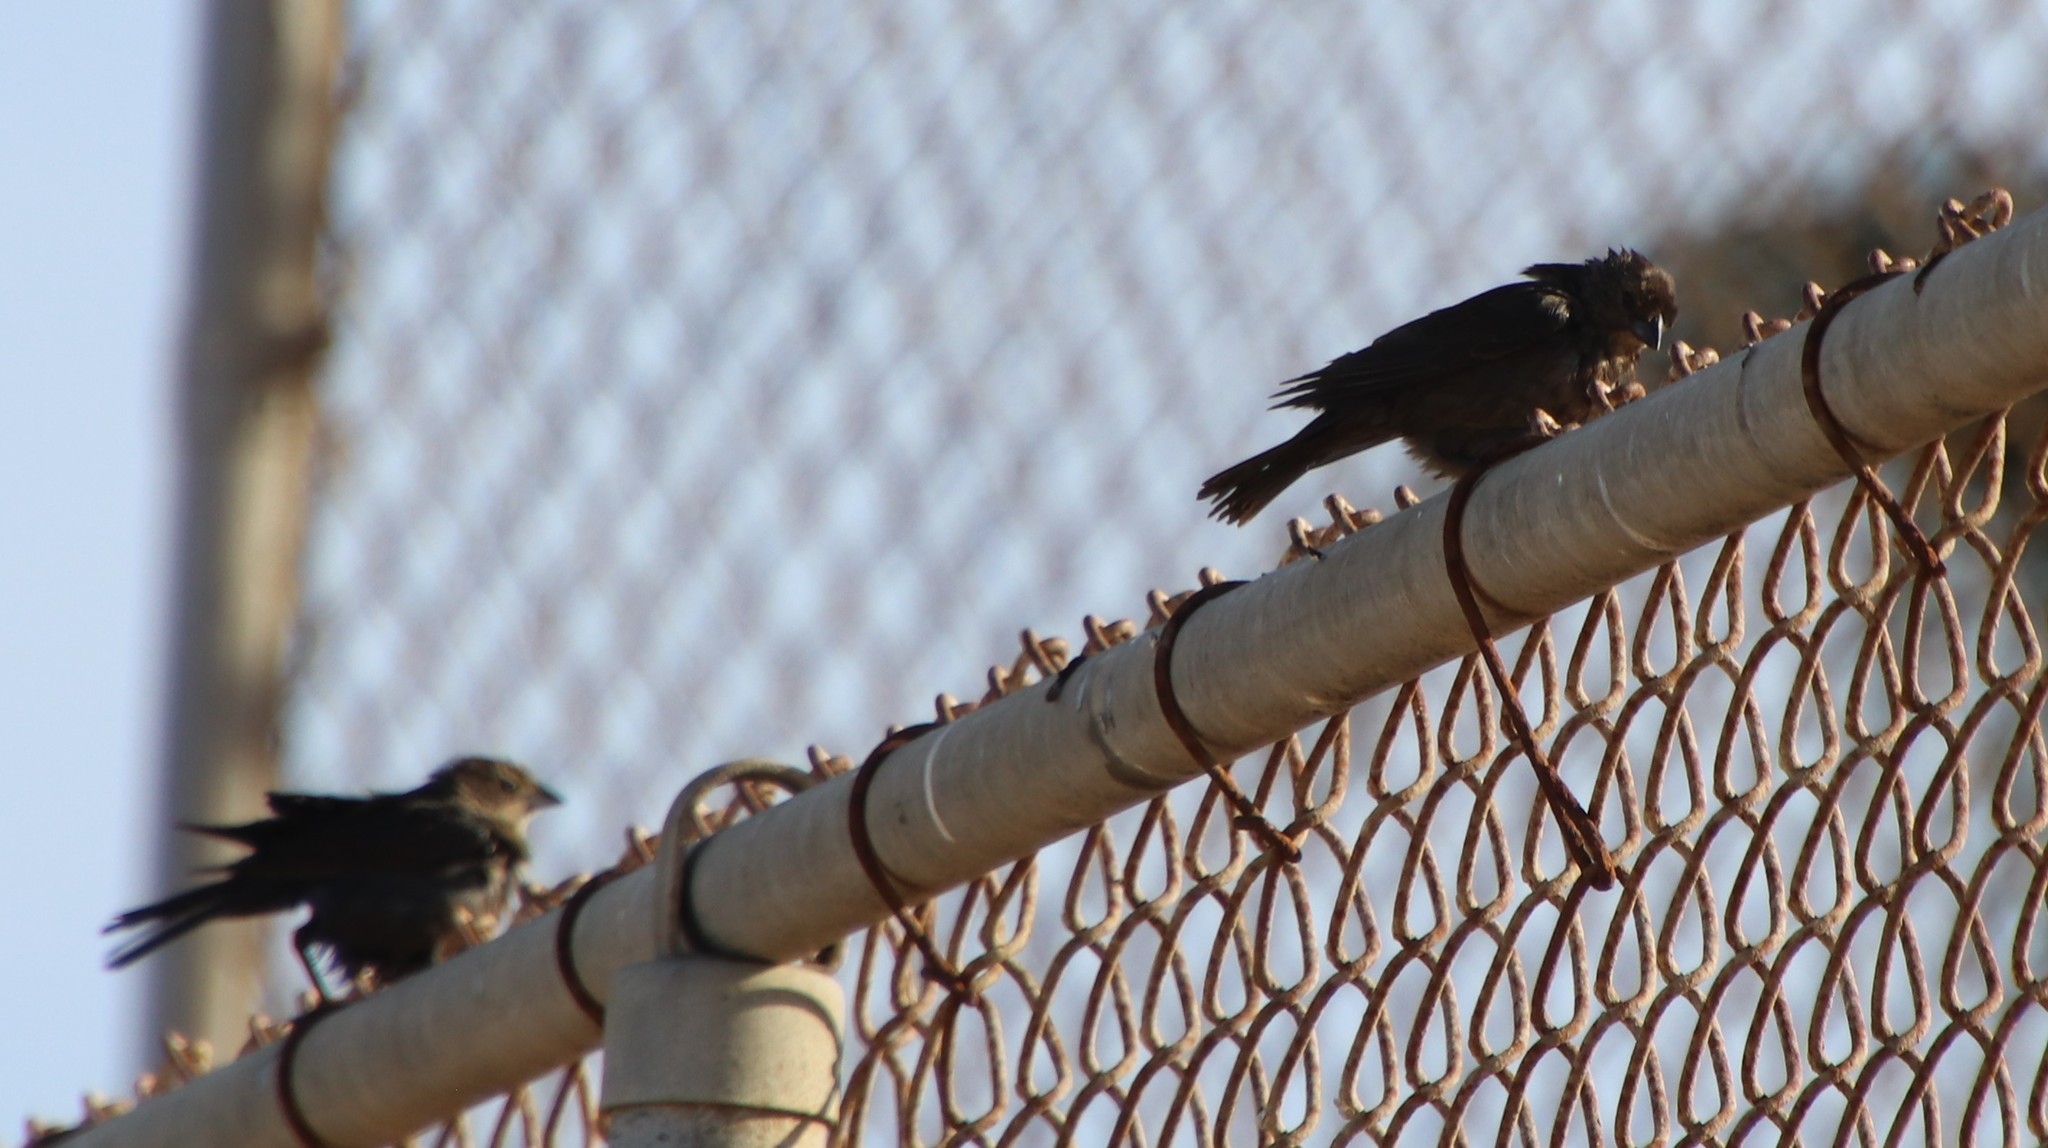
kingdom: Animalia
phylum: Chordata
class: Aves
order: Passeriformes
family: Icteridae
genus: Molothrus
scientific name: Molothrus ater
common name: Brown-headed cowbird
